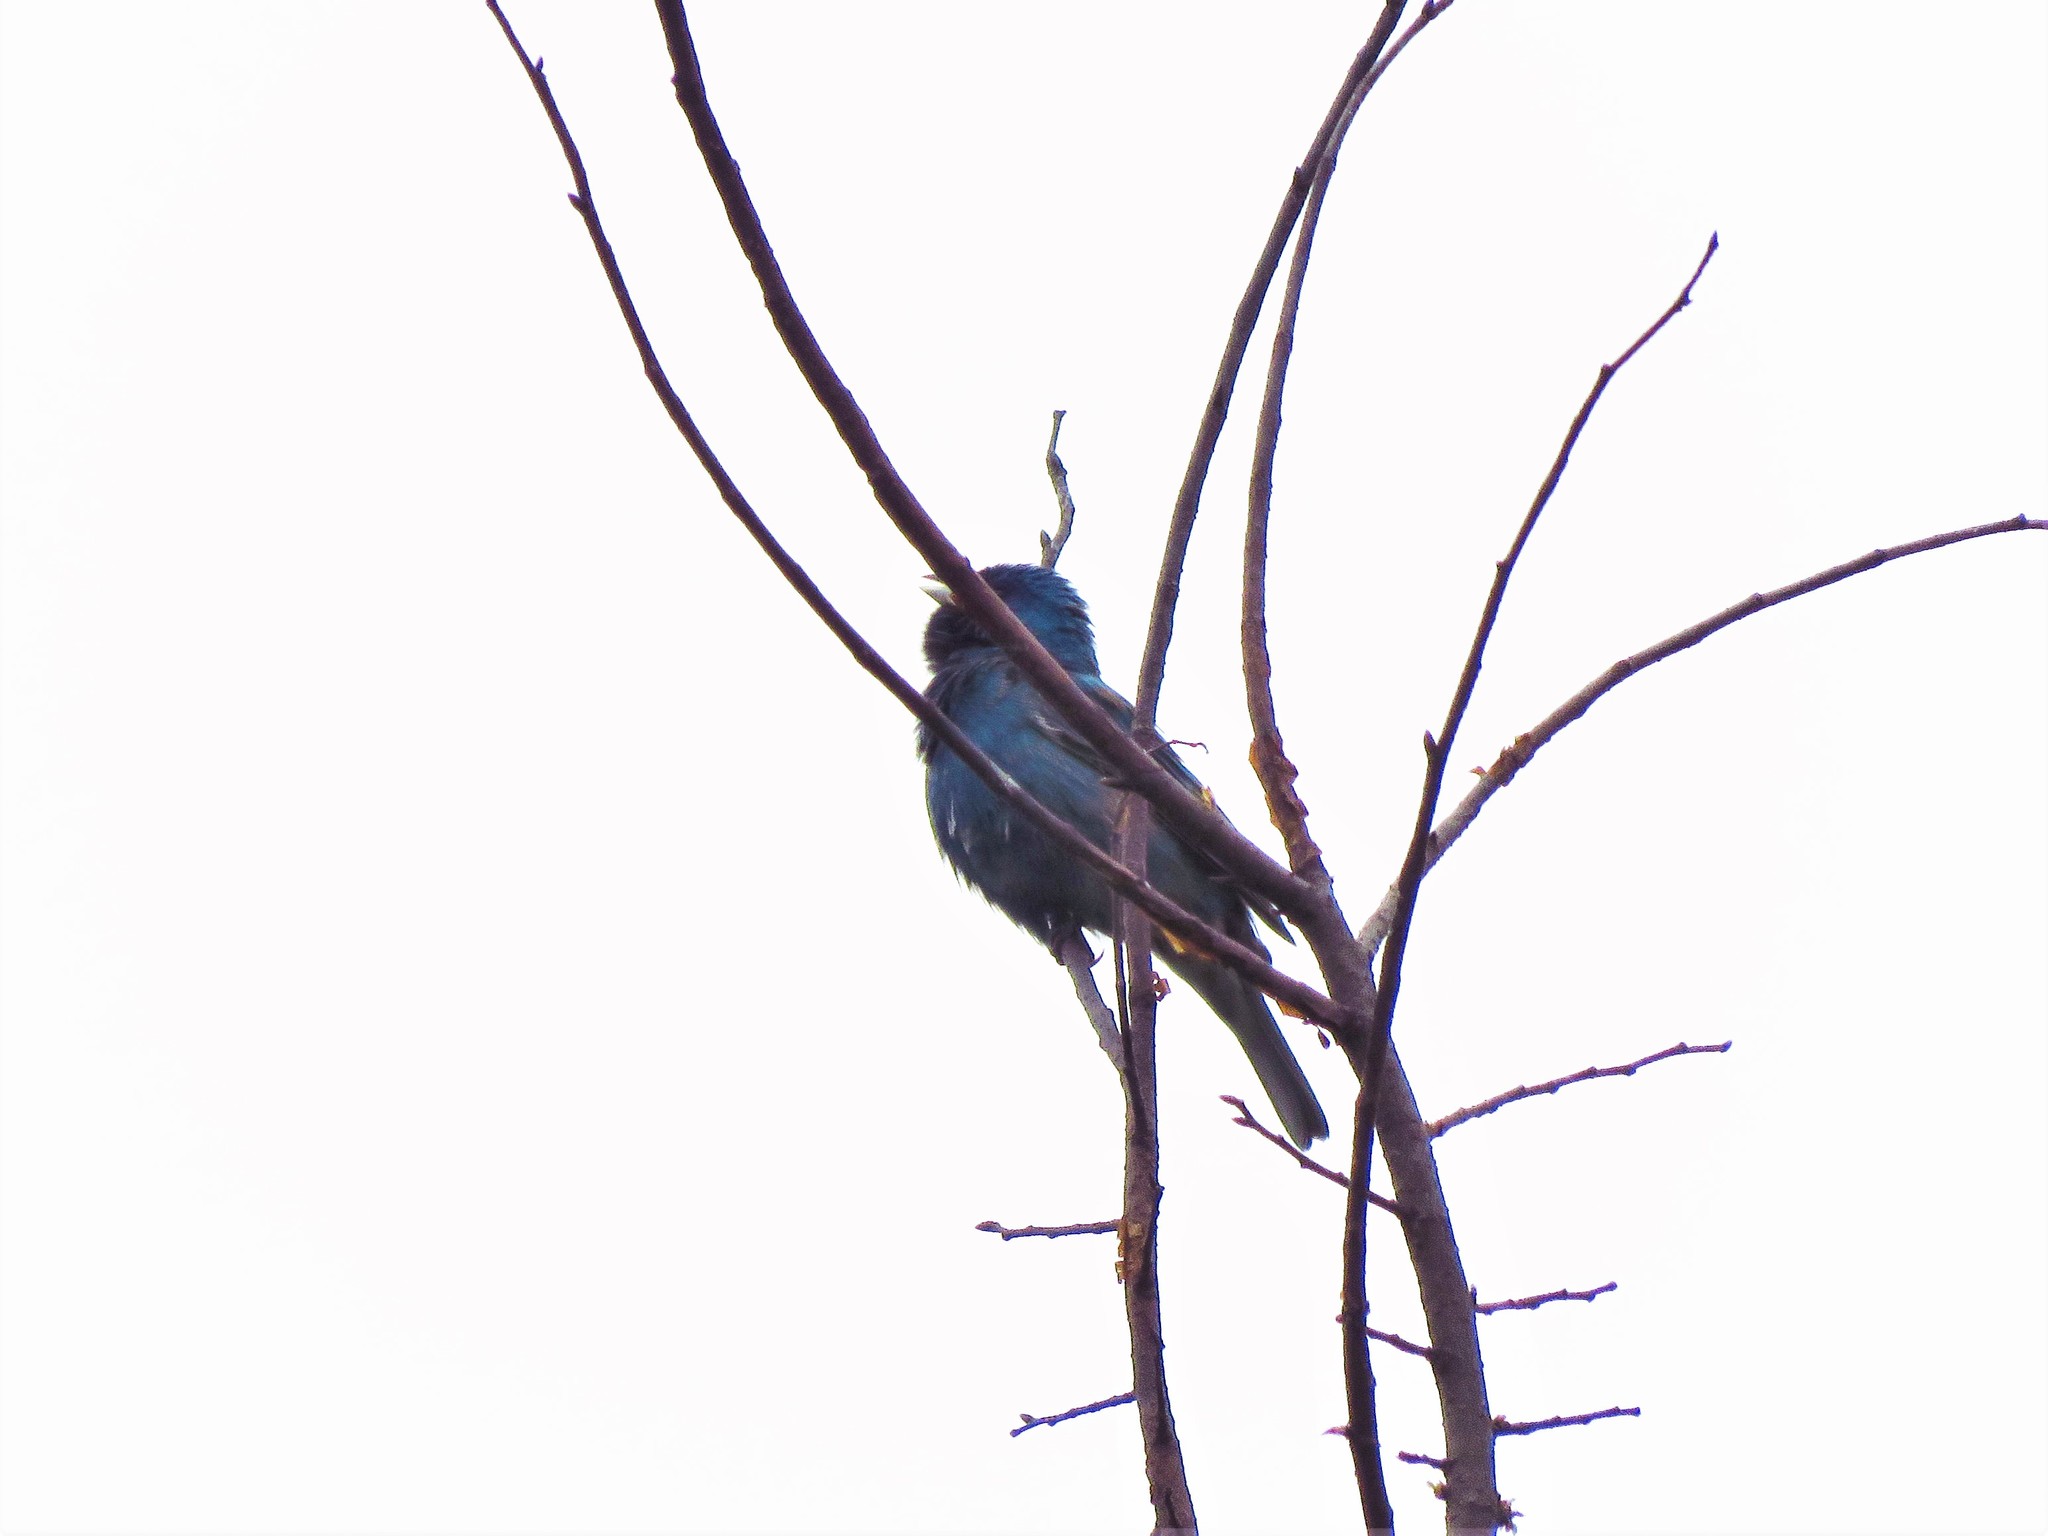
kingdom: Animalia
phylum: Chordata
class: Aves
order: Passeriformes
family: Cardinalidae
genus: Passerina
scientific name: Passerina cyanea
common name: Indigo bunting
